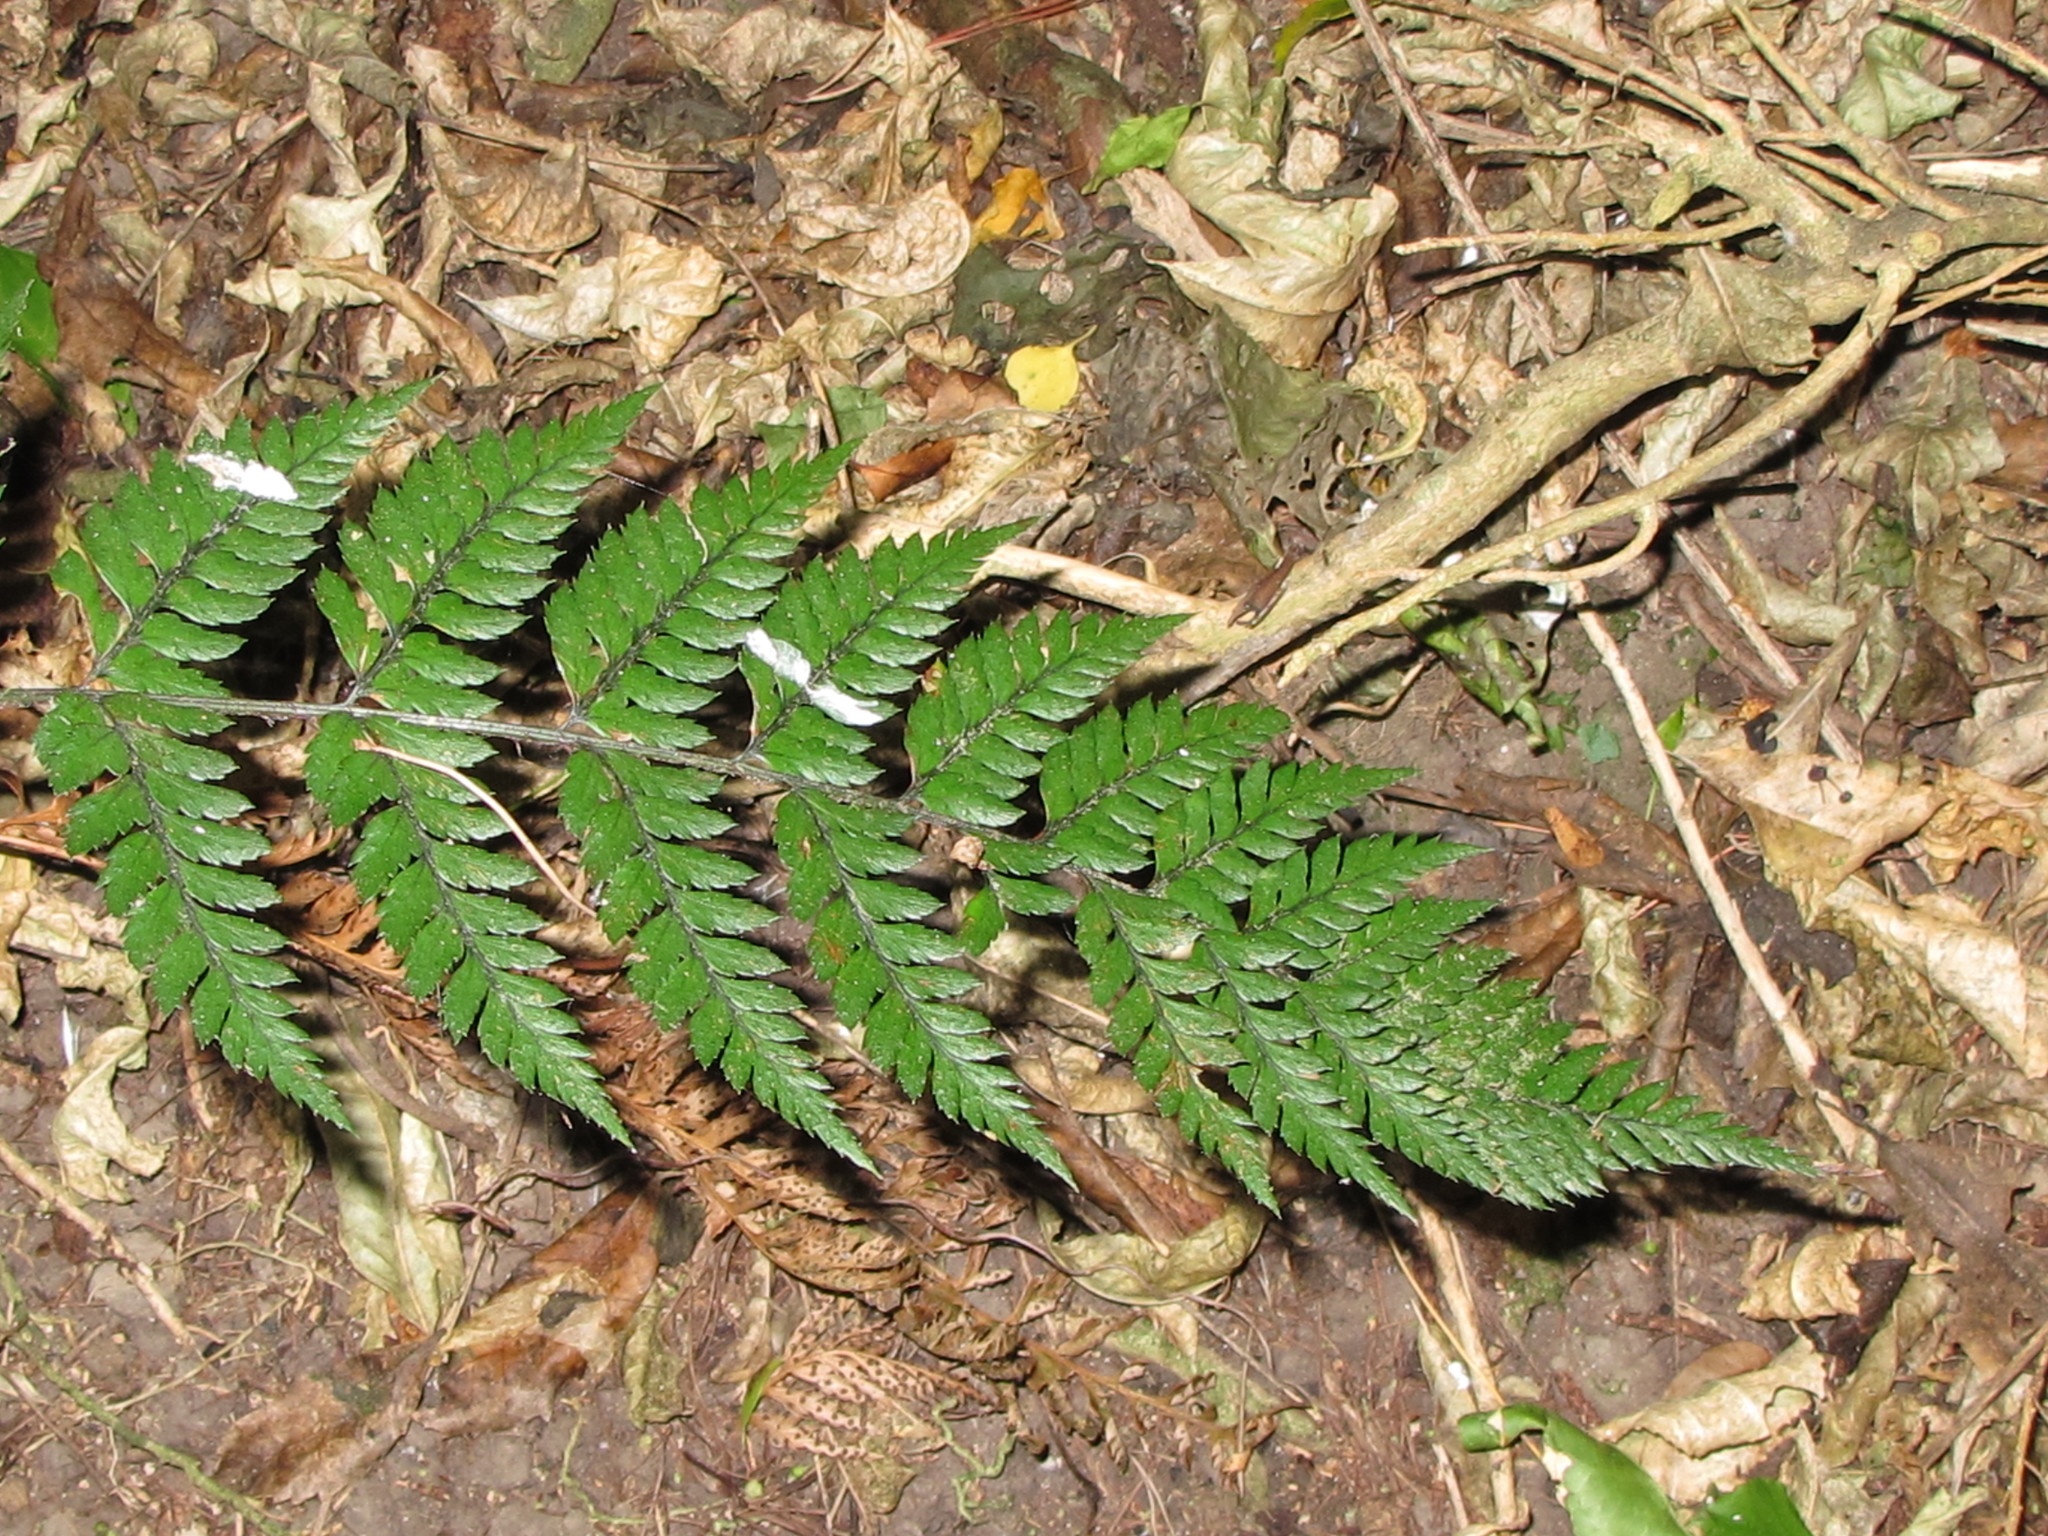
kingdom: Plantae
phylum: Tracheophyta
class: Polypodiopsida
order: Polypodiales
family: Dryopteridaceae
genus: Polystichum
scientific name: Polystichum neozelandicum
